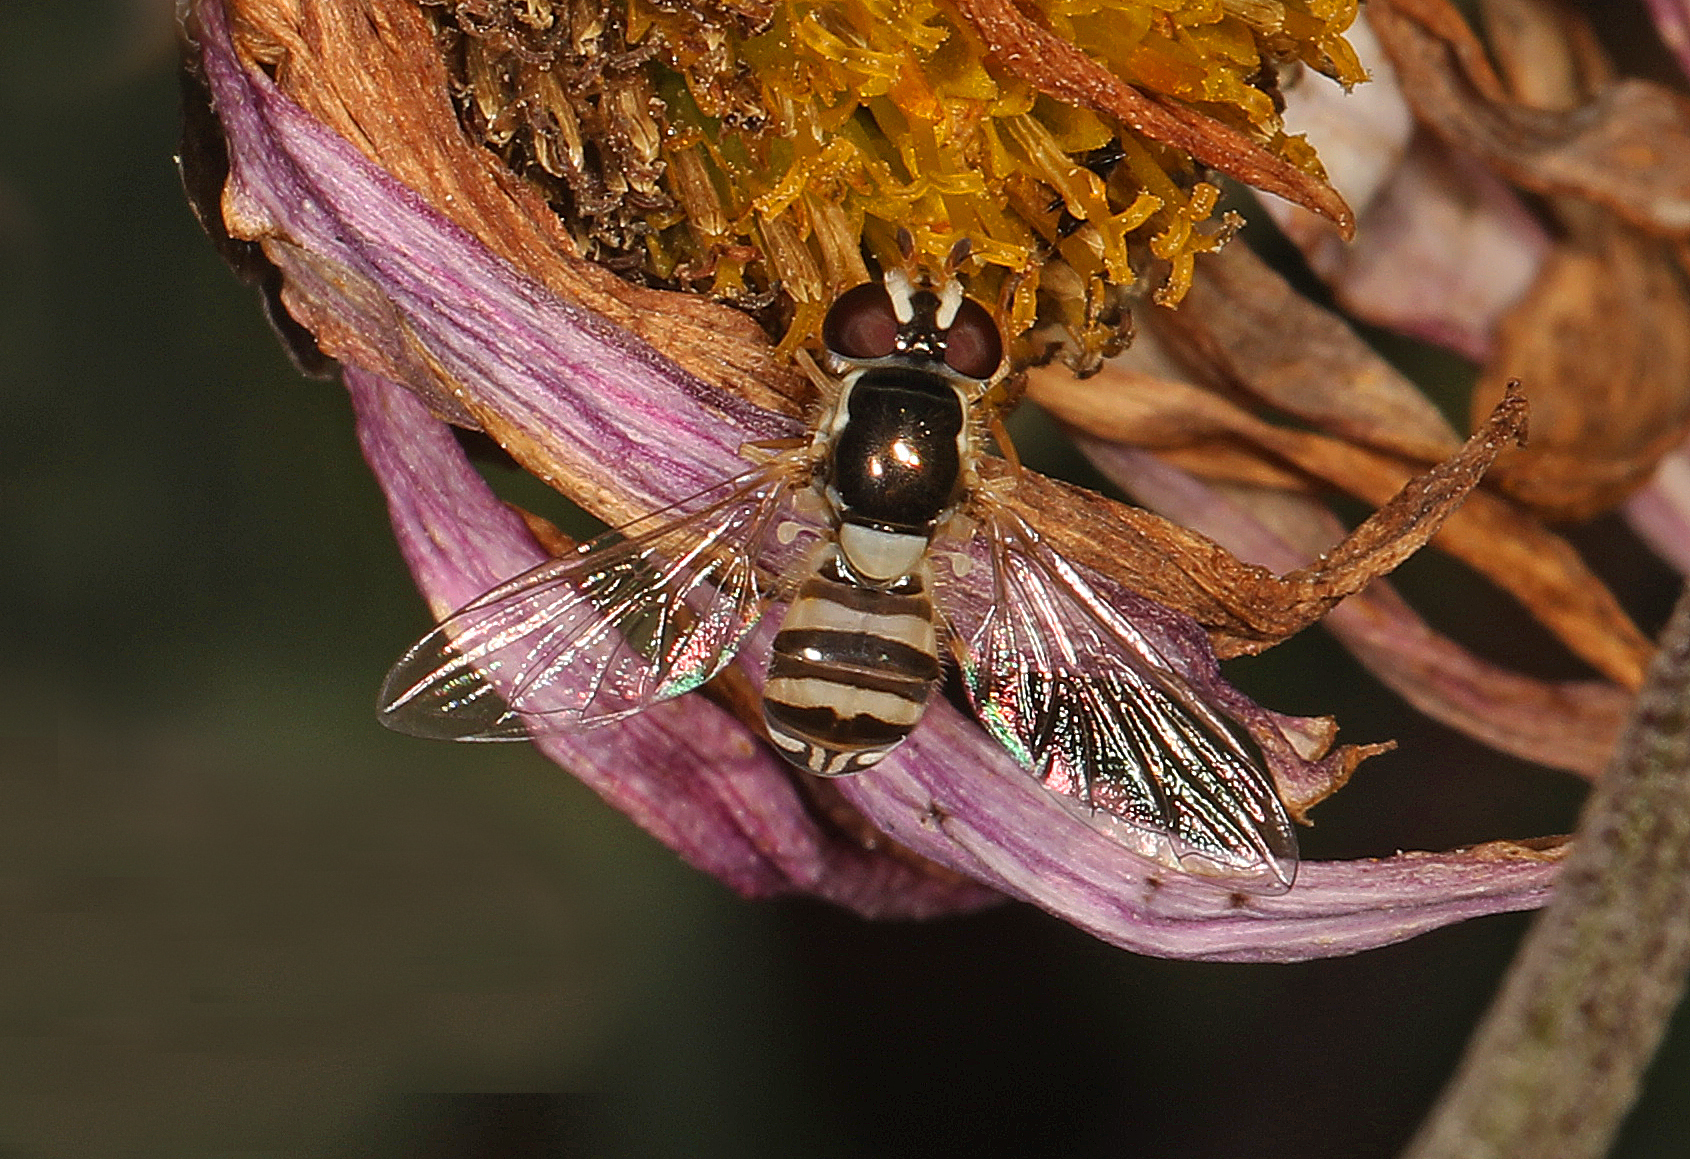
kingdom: Animalia
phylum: Arthropoda
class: Insecta
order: Diptera
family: Syrphidae
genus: Allograpta
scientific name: Allograpta exotica
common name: Syrphid fly
